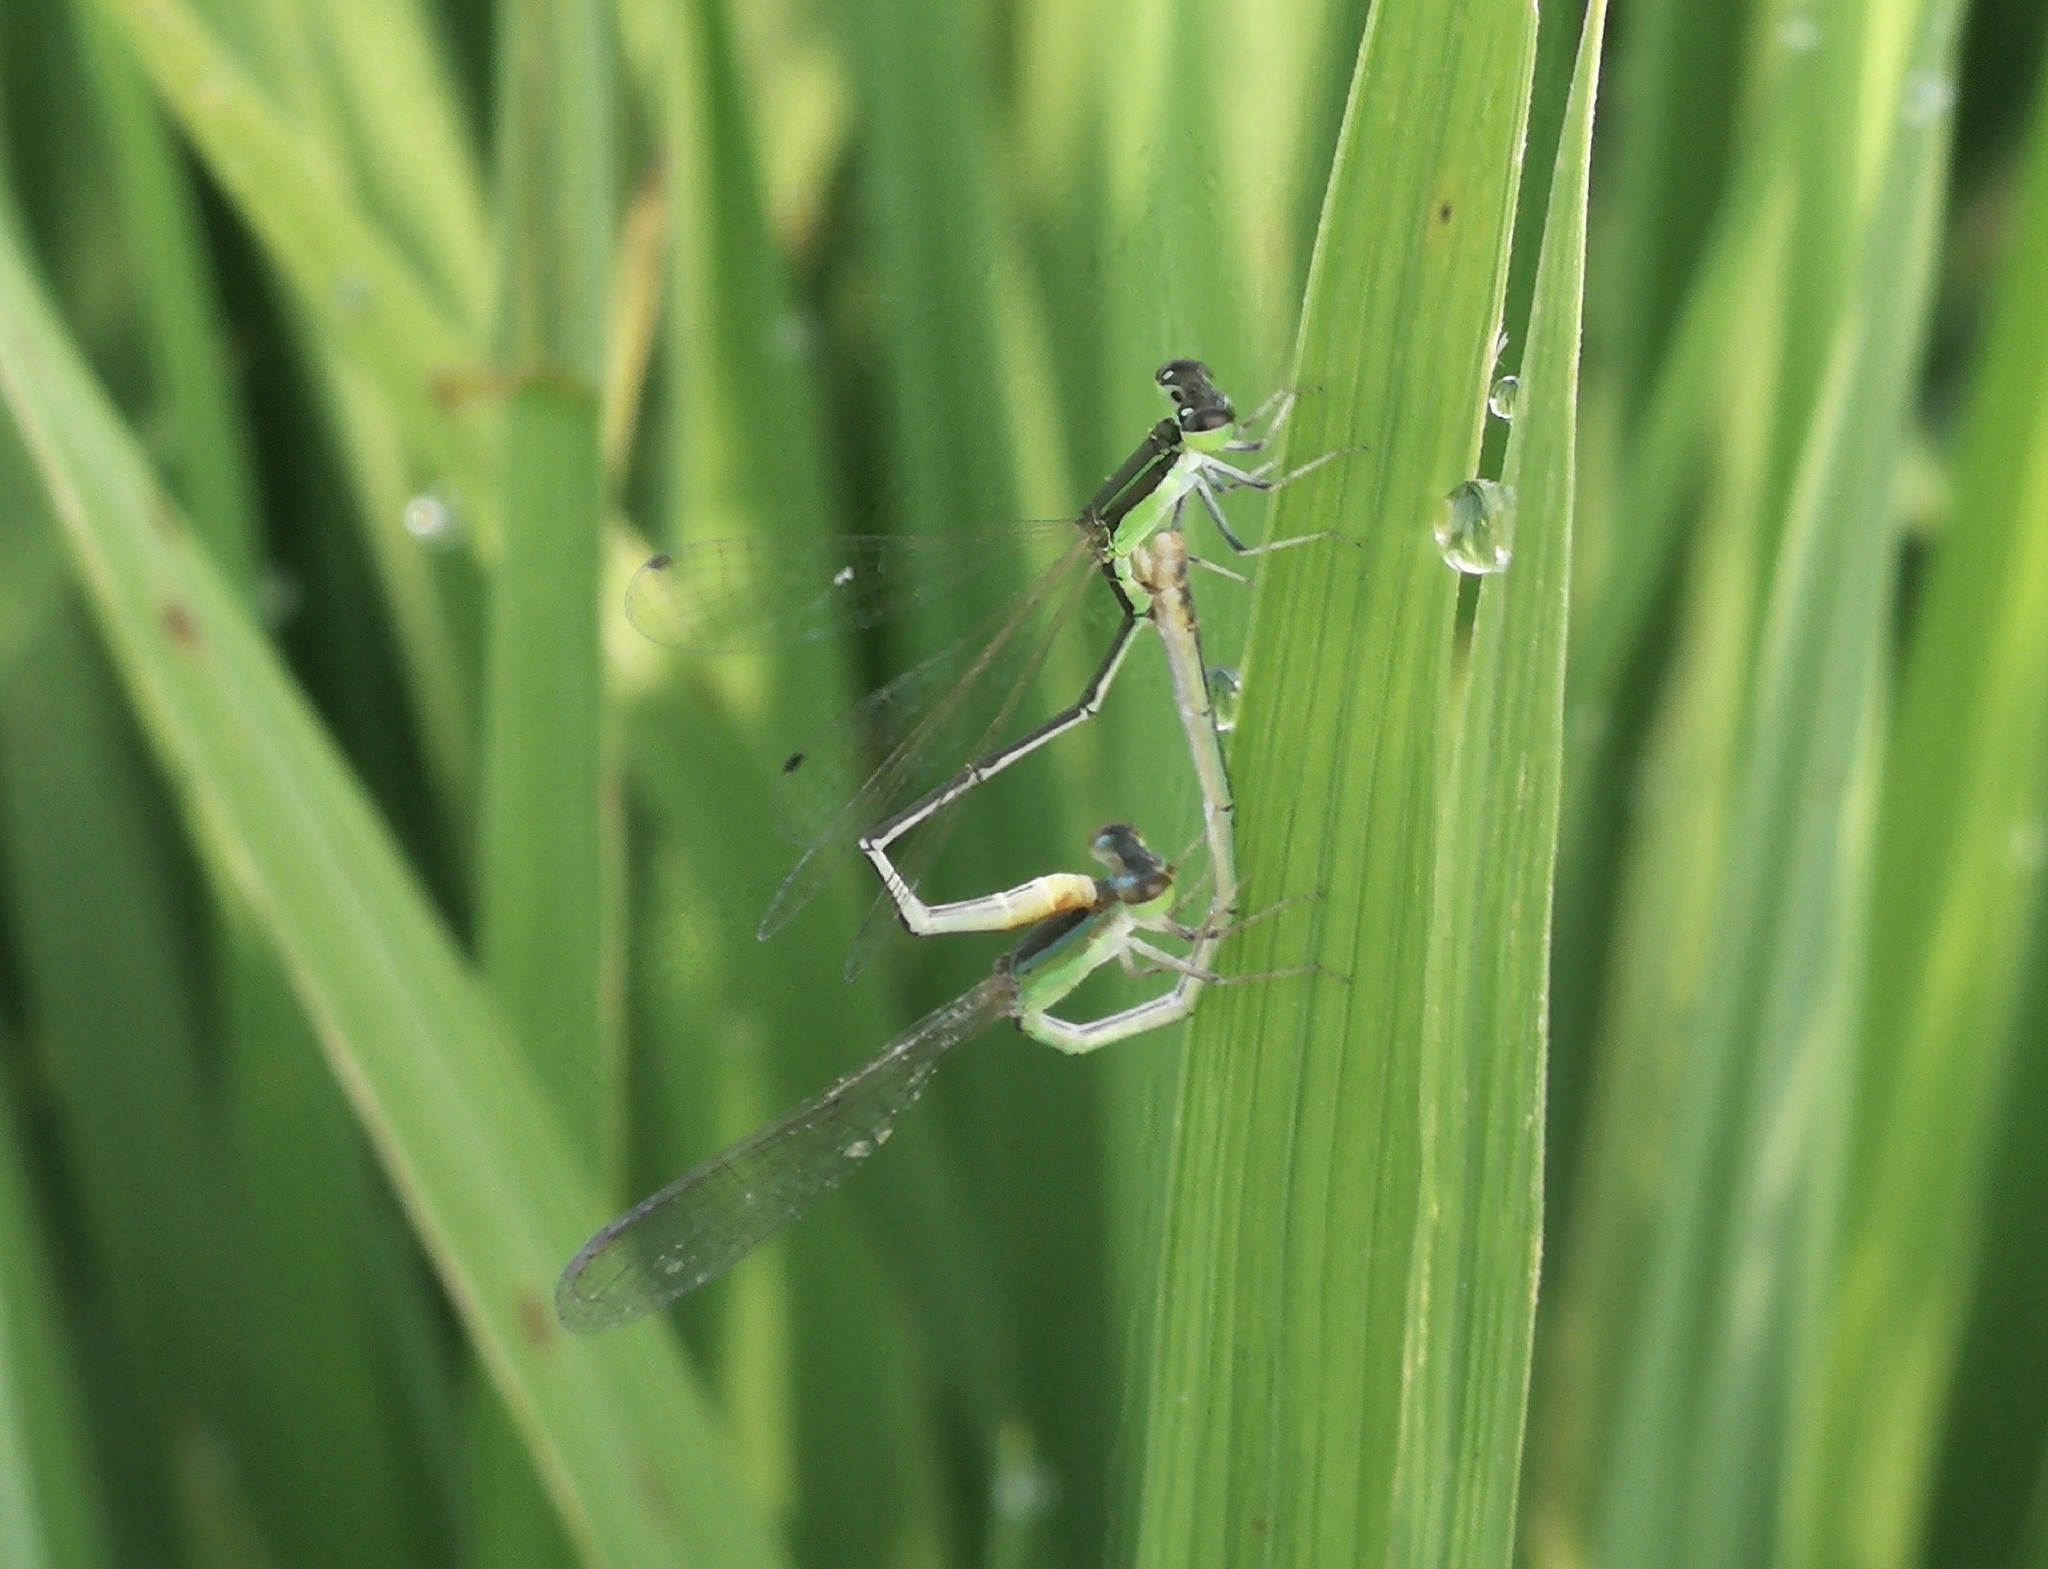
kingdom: Animalia
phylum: Arthropoda
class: Insecta
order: Odonata
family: Coenagrionidae
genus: Agriocnemis
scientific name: Agriocnemis pygmaea
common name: Pygmy wisp
